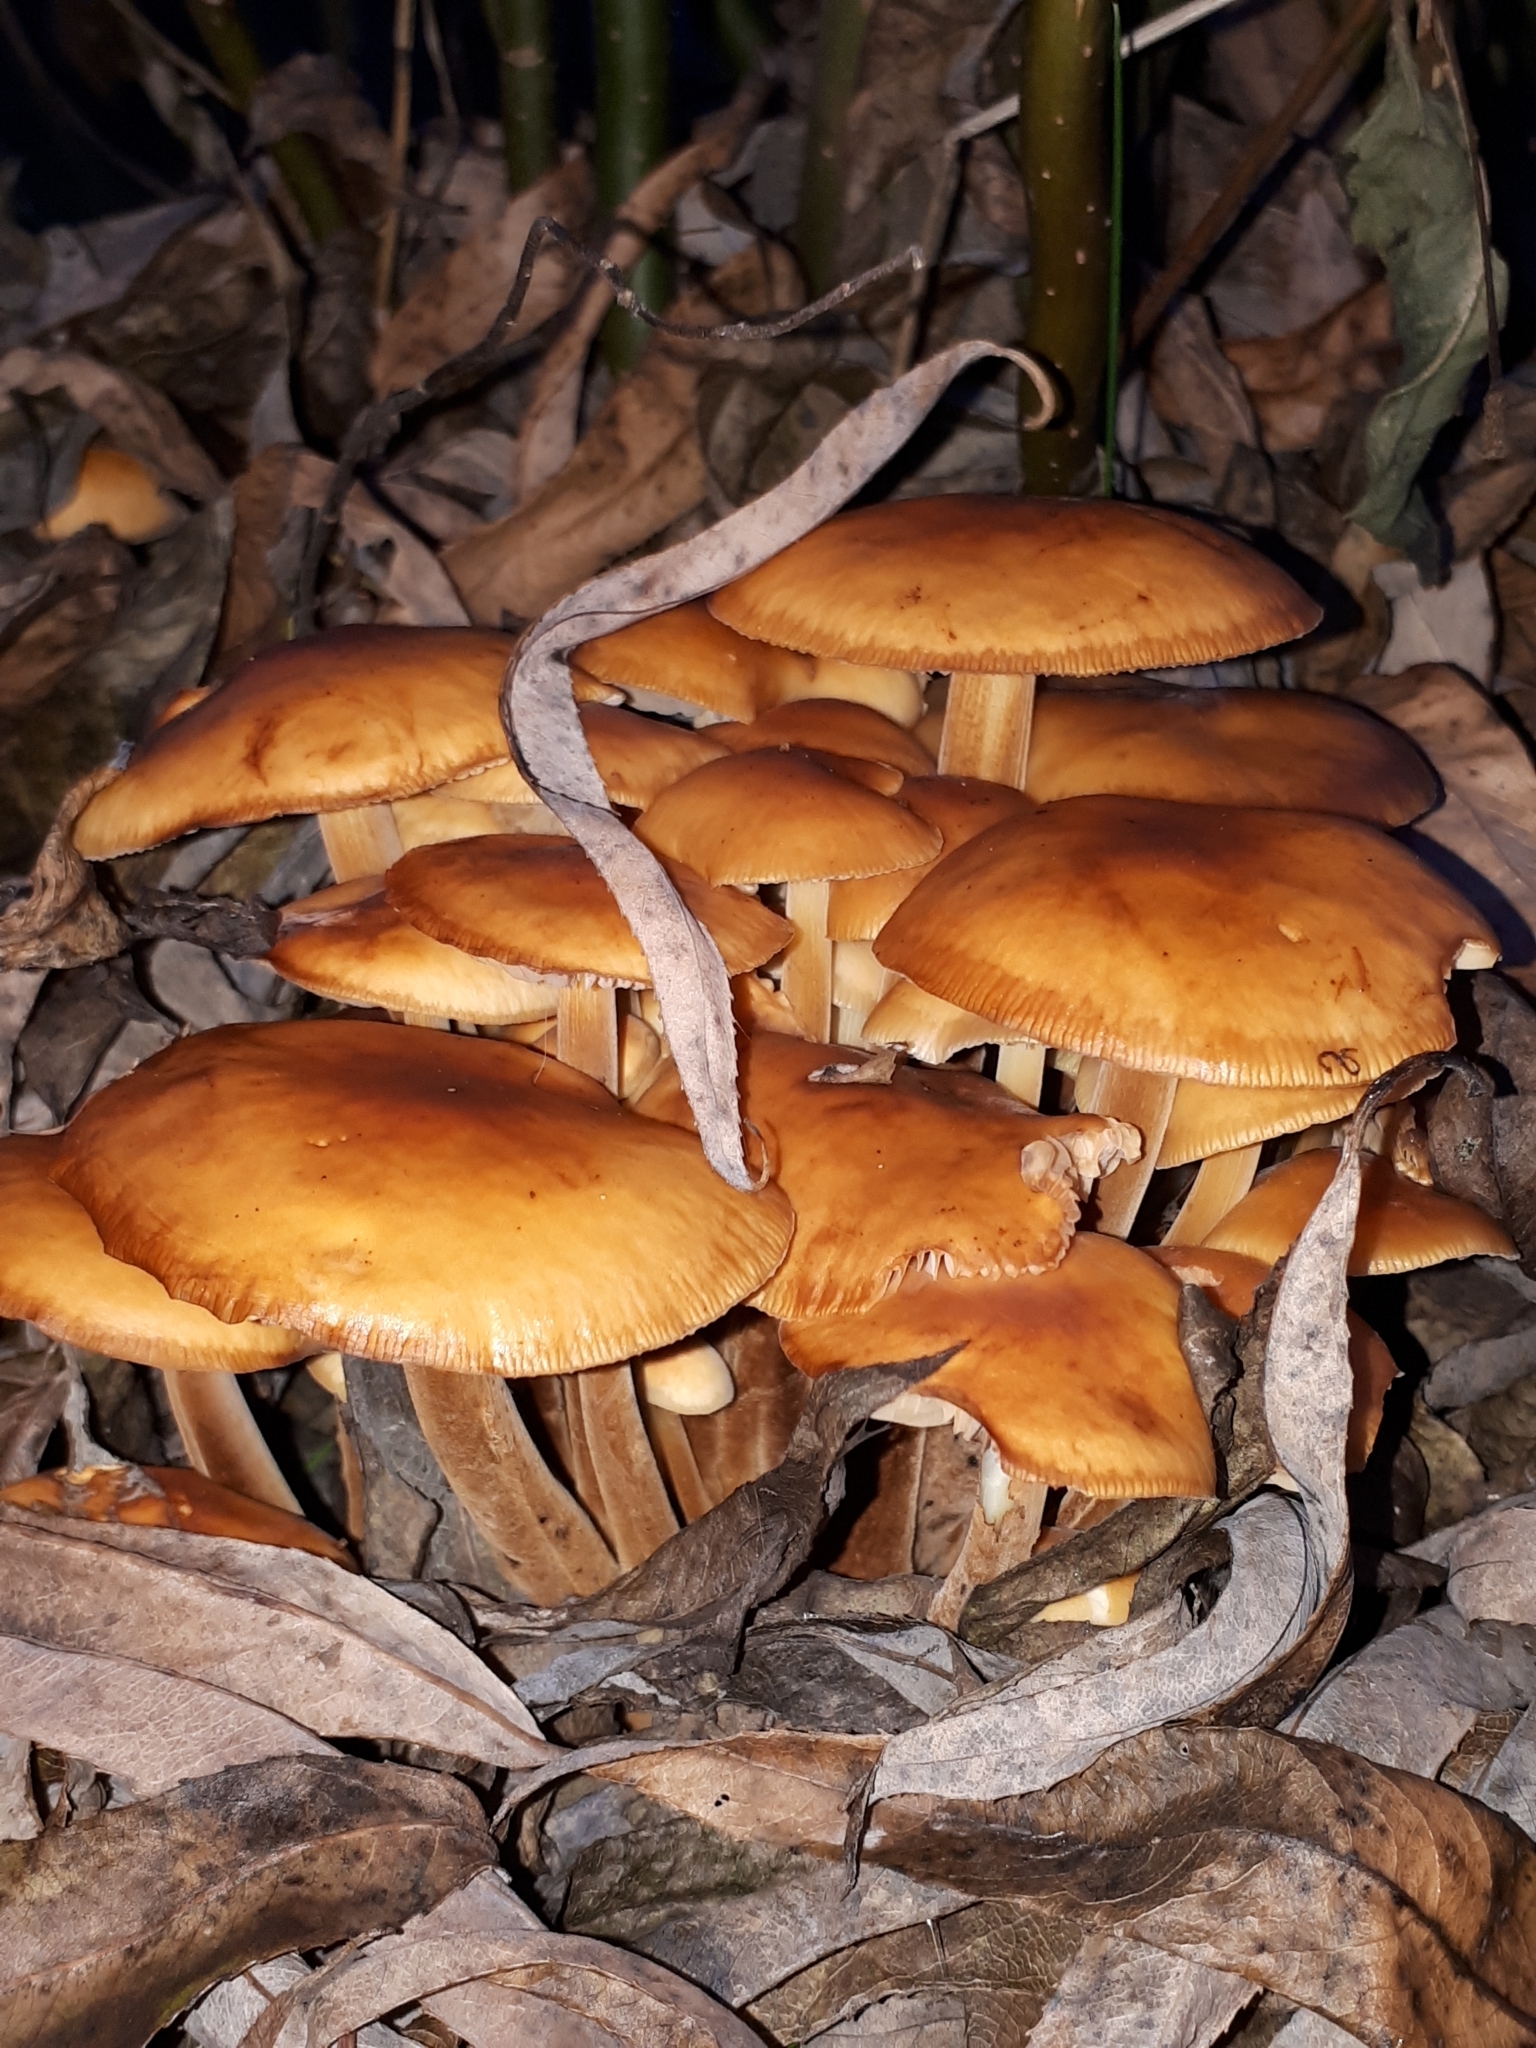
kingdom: Fungi
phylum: Basidiomycota
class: Agaricomycetes
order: Agaricales
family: Physalacriaceae
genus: Flammulina
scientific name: Flammulina
